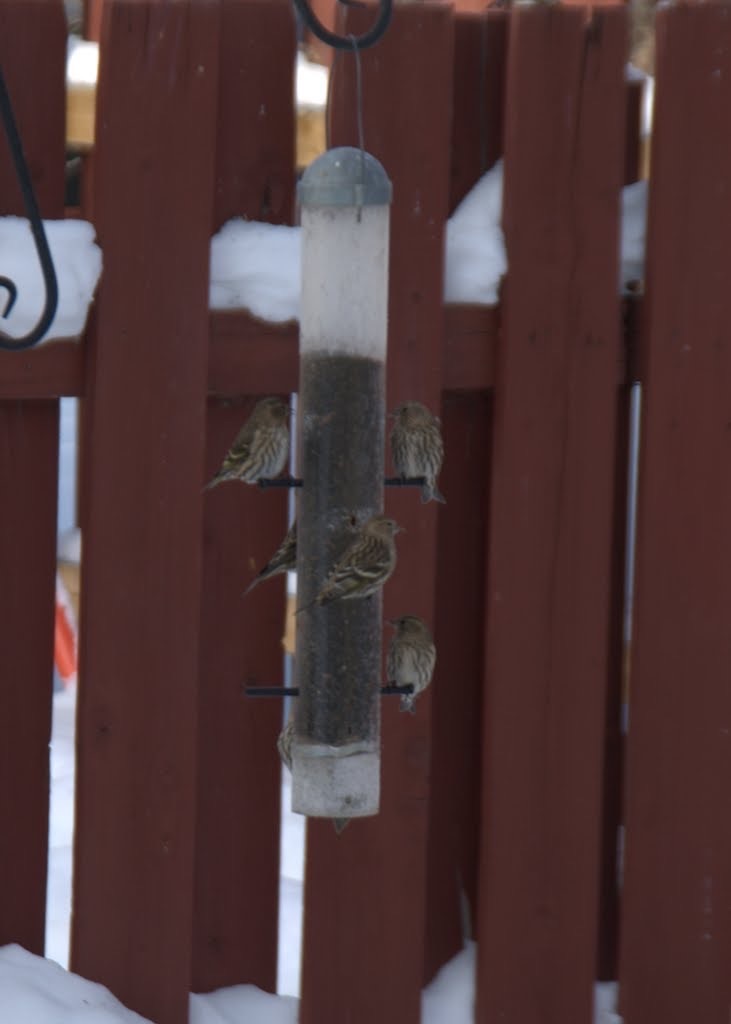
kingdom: Animalia
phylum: Chordata
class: Aves
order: Passeriformes
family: Fringillidae
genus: Spinus
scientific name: Spinus pinus
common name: Pine siskin
